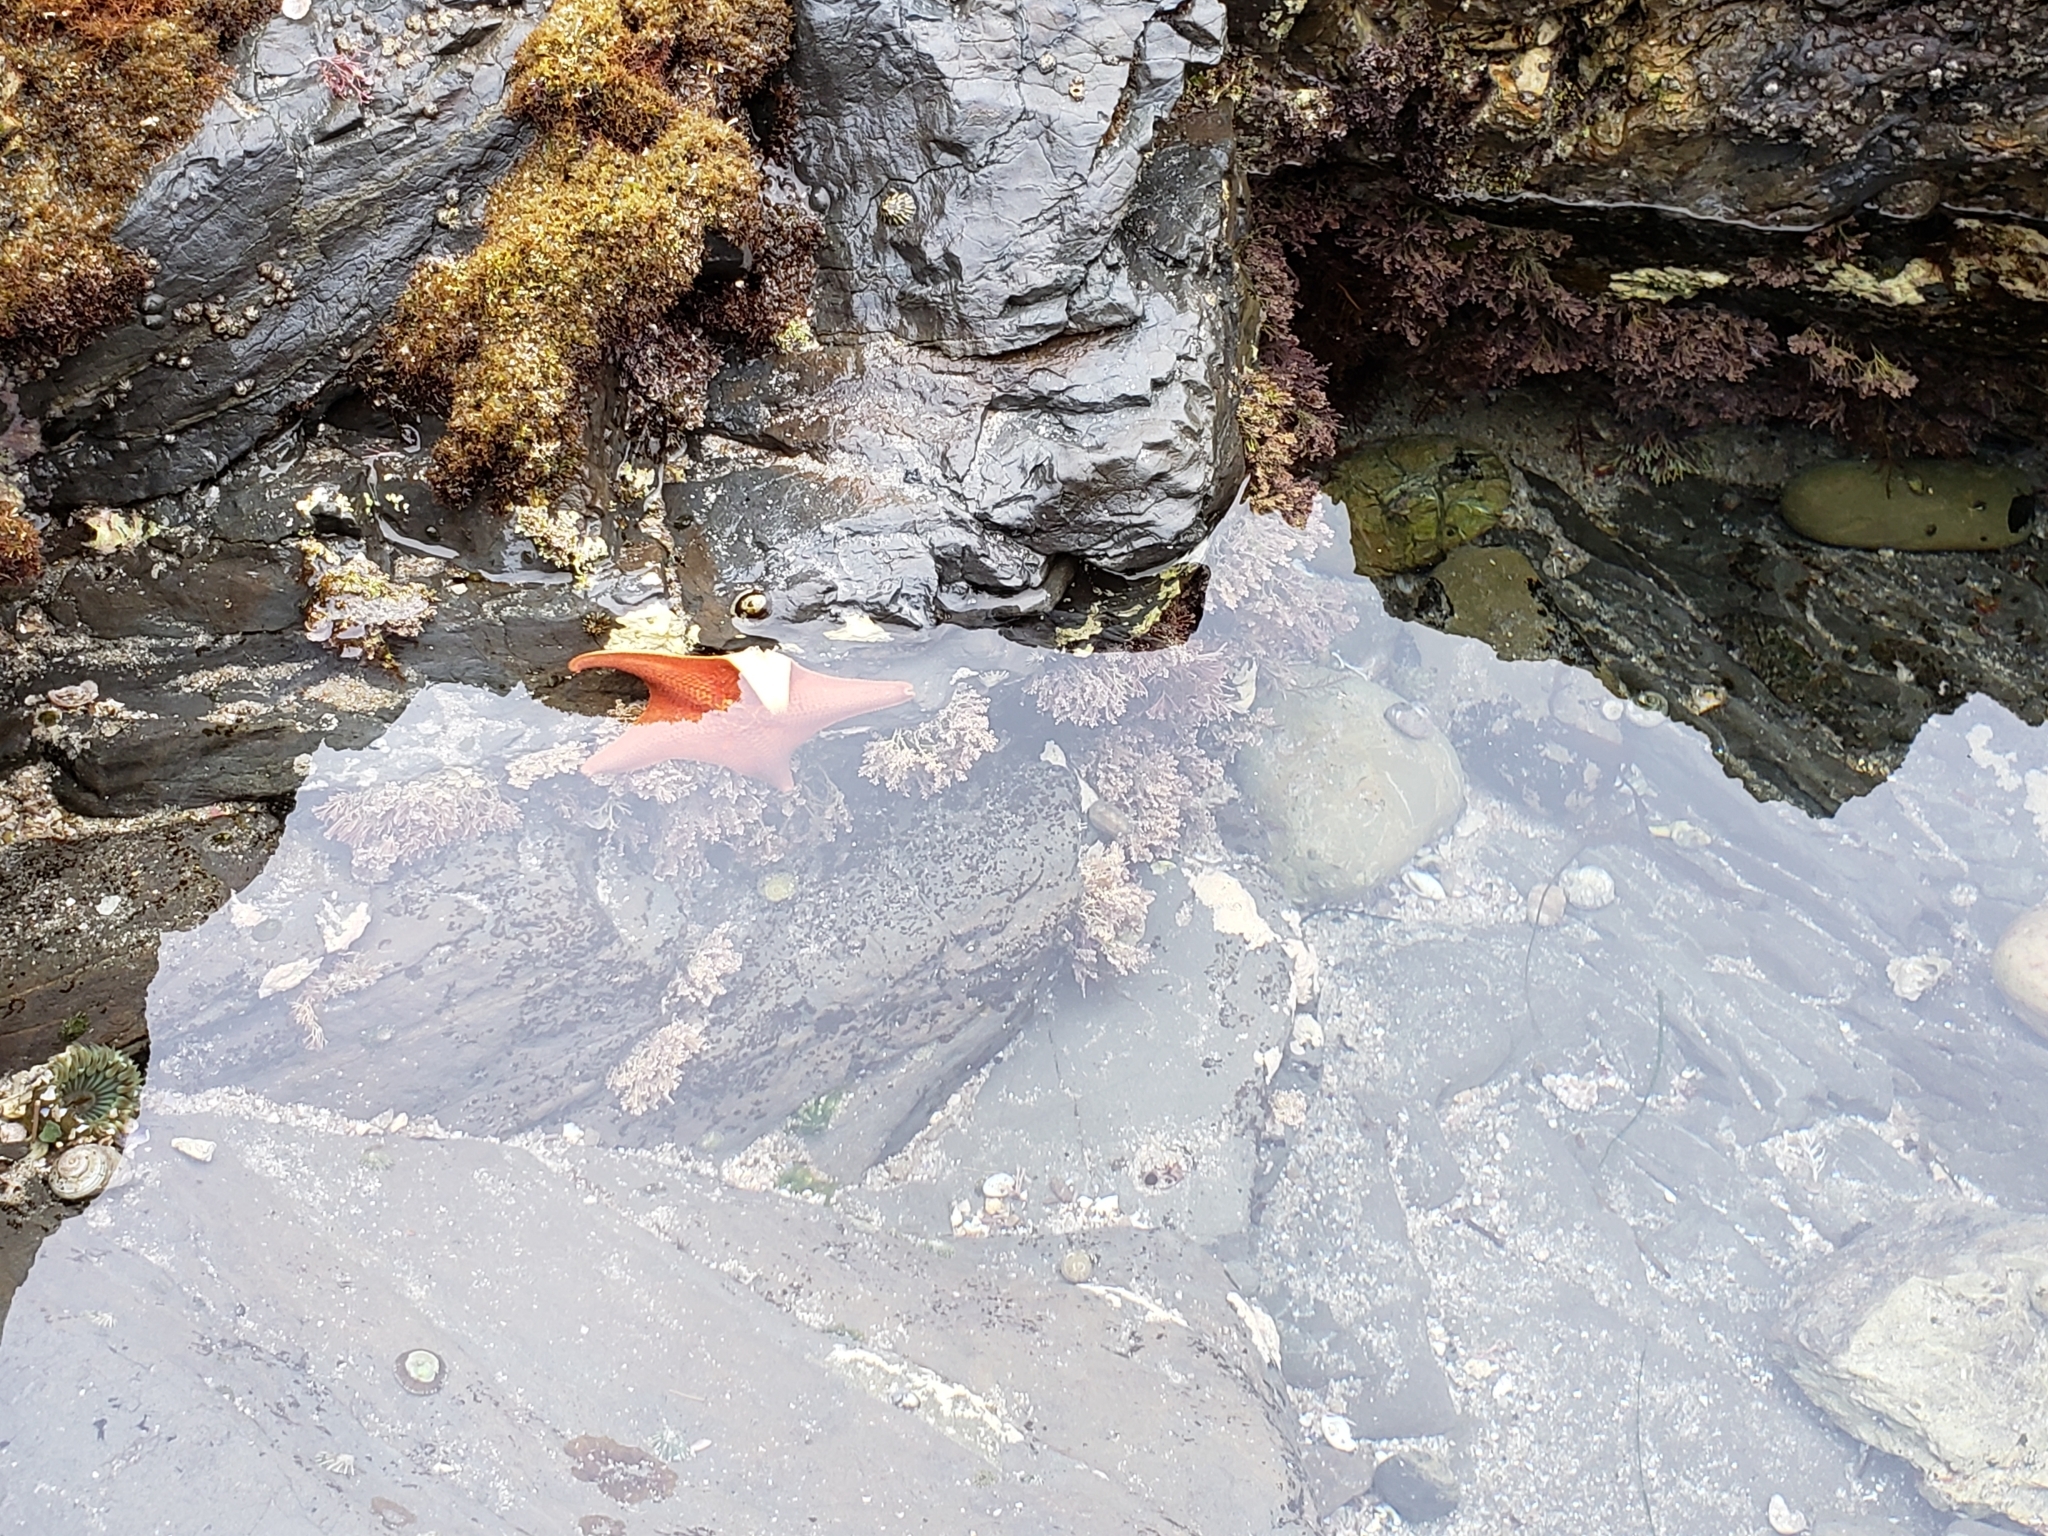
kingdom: Animalia
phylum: Echinodermata
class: Asteroidea
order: Valvatida
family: Asterinidae
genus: Patiria
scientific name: Patiria miniata
